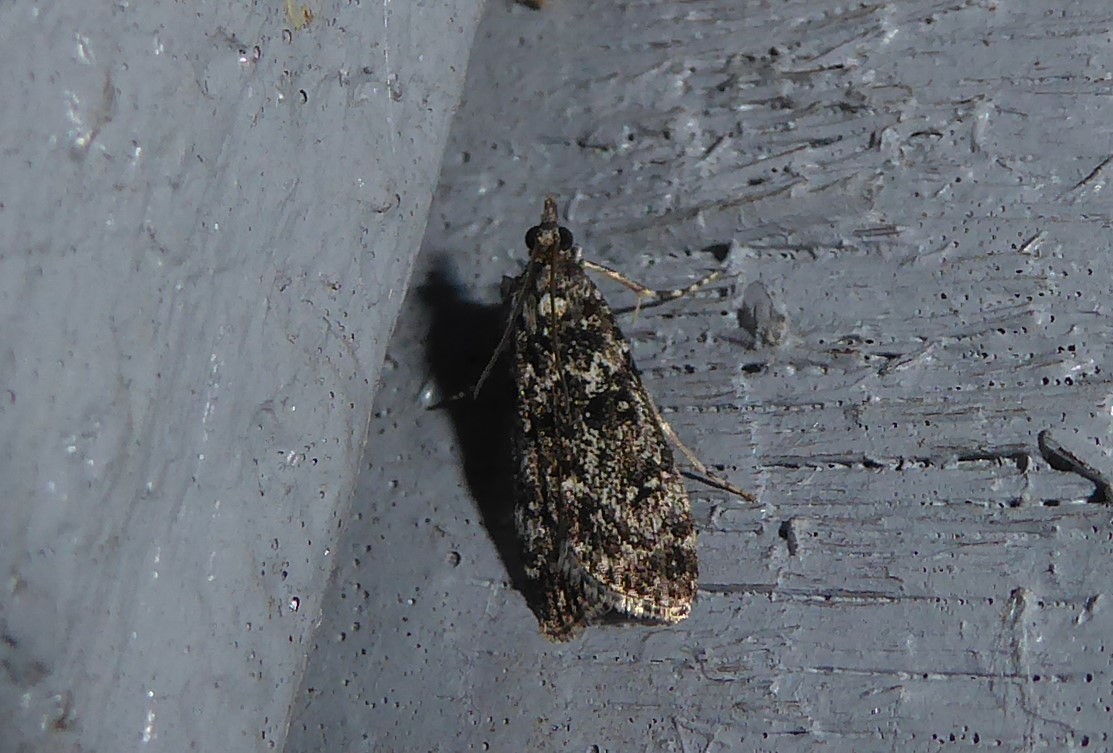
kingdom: Animalia
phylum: Arthropoda
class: Insecta
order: Lepidoptera
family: Crambidae
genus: Eudonia
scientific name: Eudonia philerga
